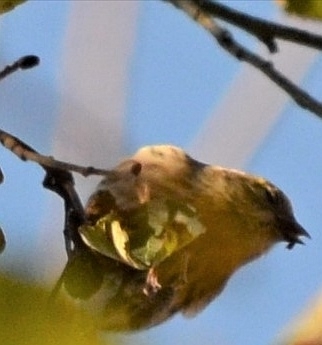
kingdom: Animalia
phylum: Chordata
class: Aves
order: Passeriformes
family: Fringillidae
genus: Spinus
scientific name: Spinus spinus
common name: Eurasian siskin
